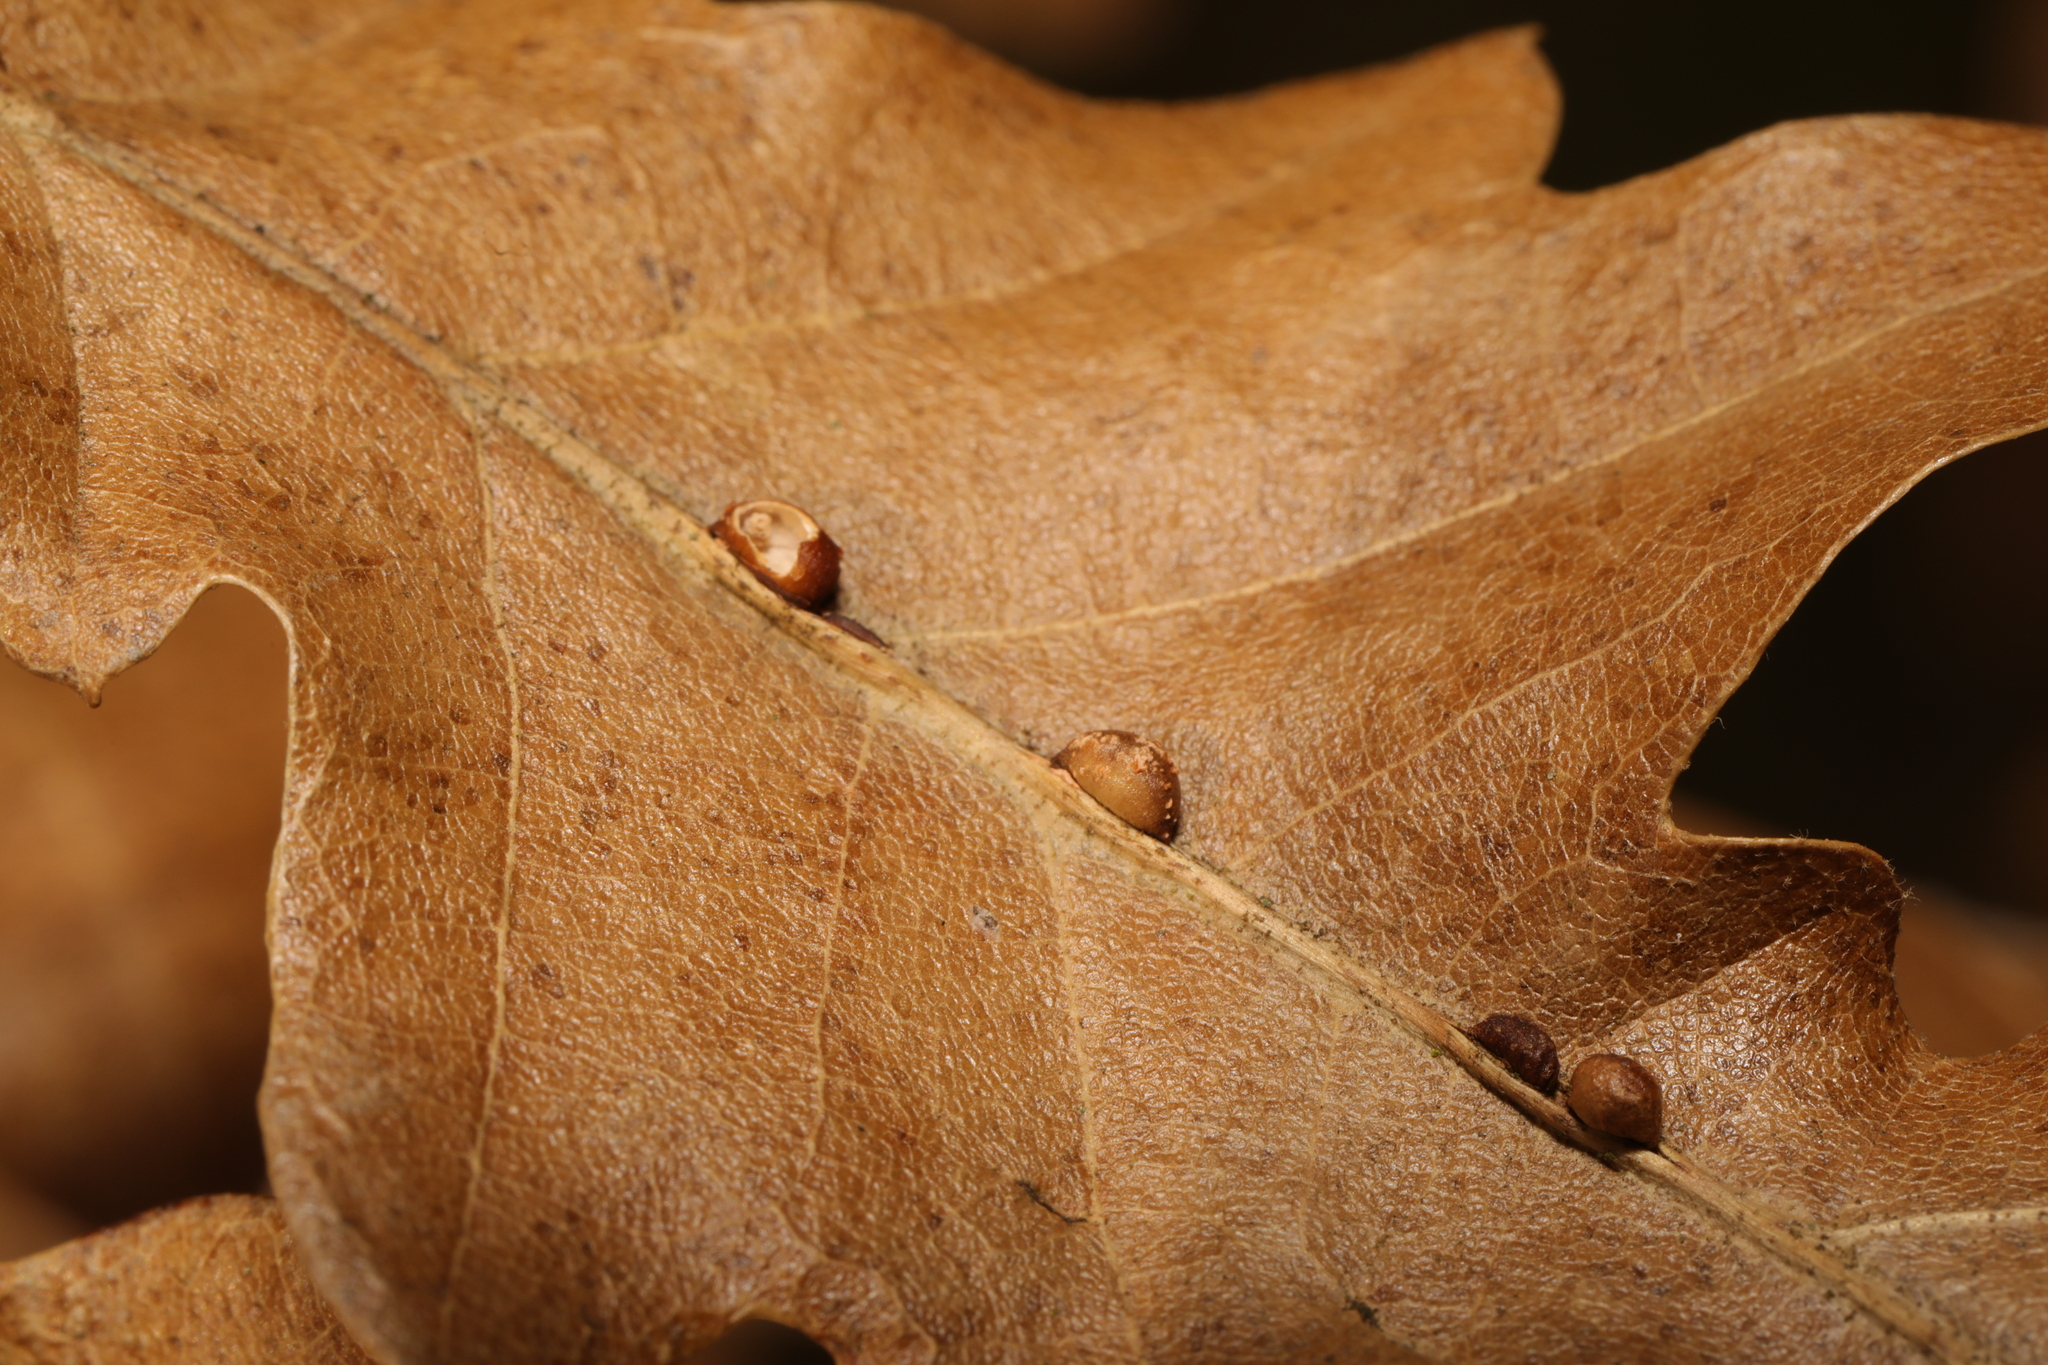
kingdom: Animalia
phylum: Arthropoda
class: Insecta
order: Hymenoptera
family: Cynipidae
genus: Neuroterus
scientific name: Neuroterus saliens
